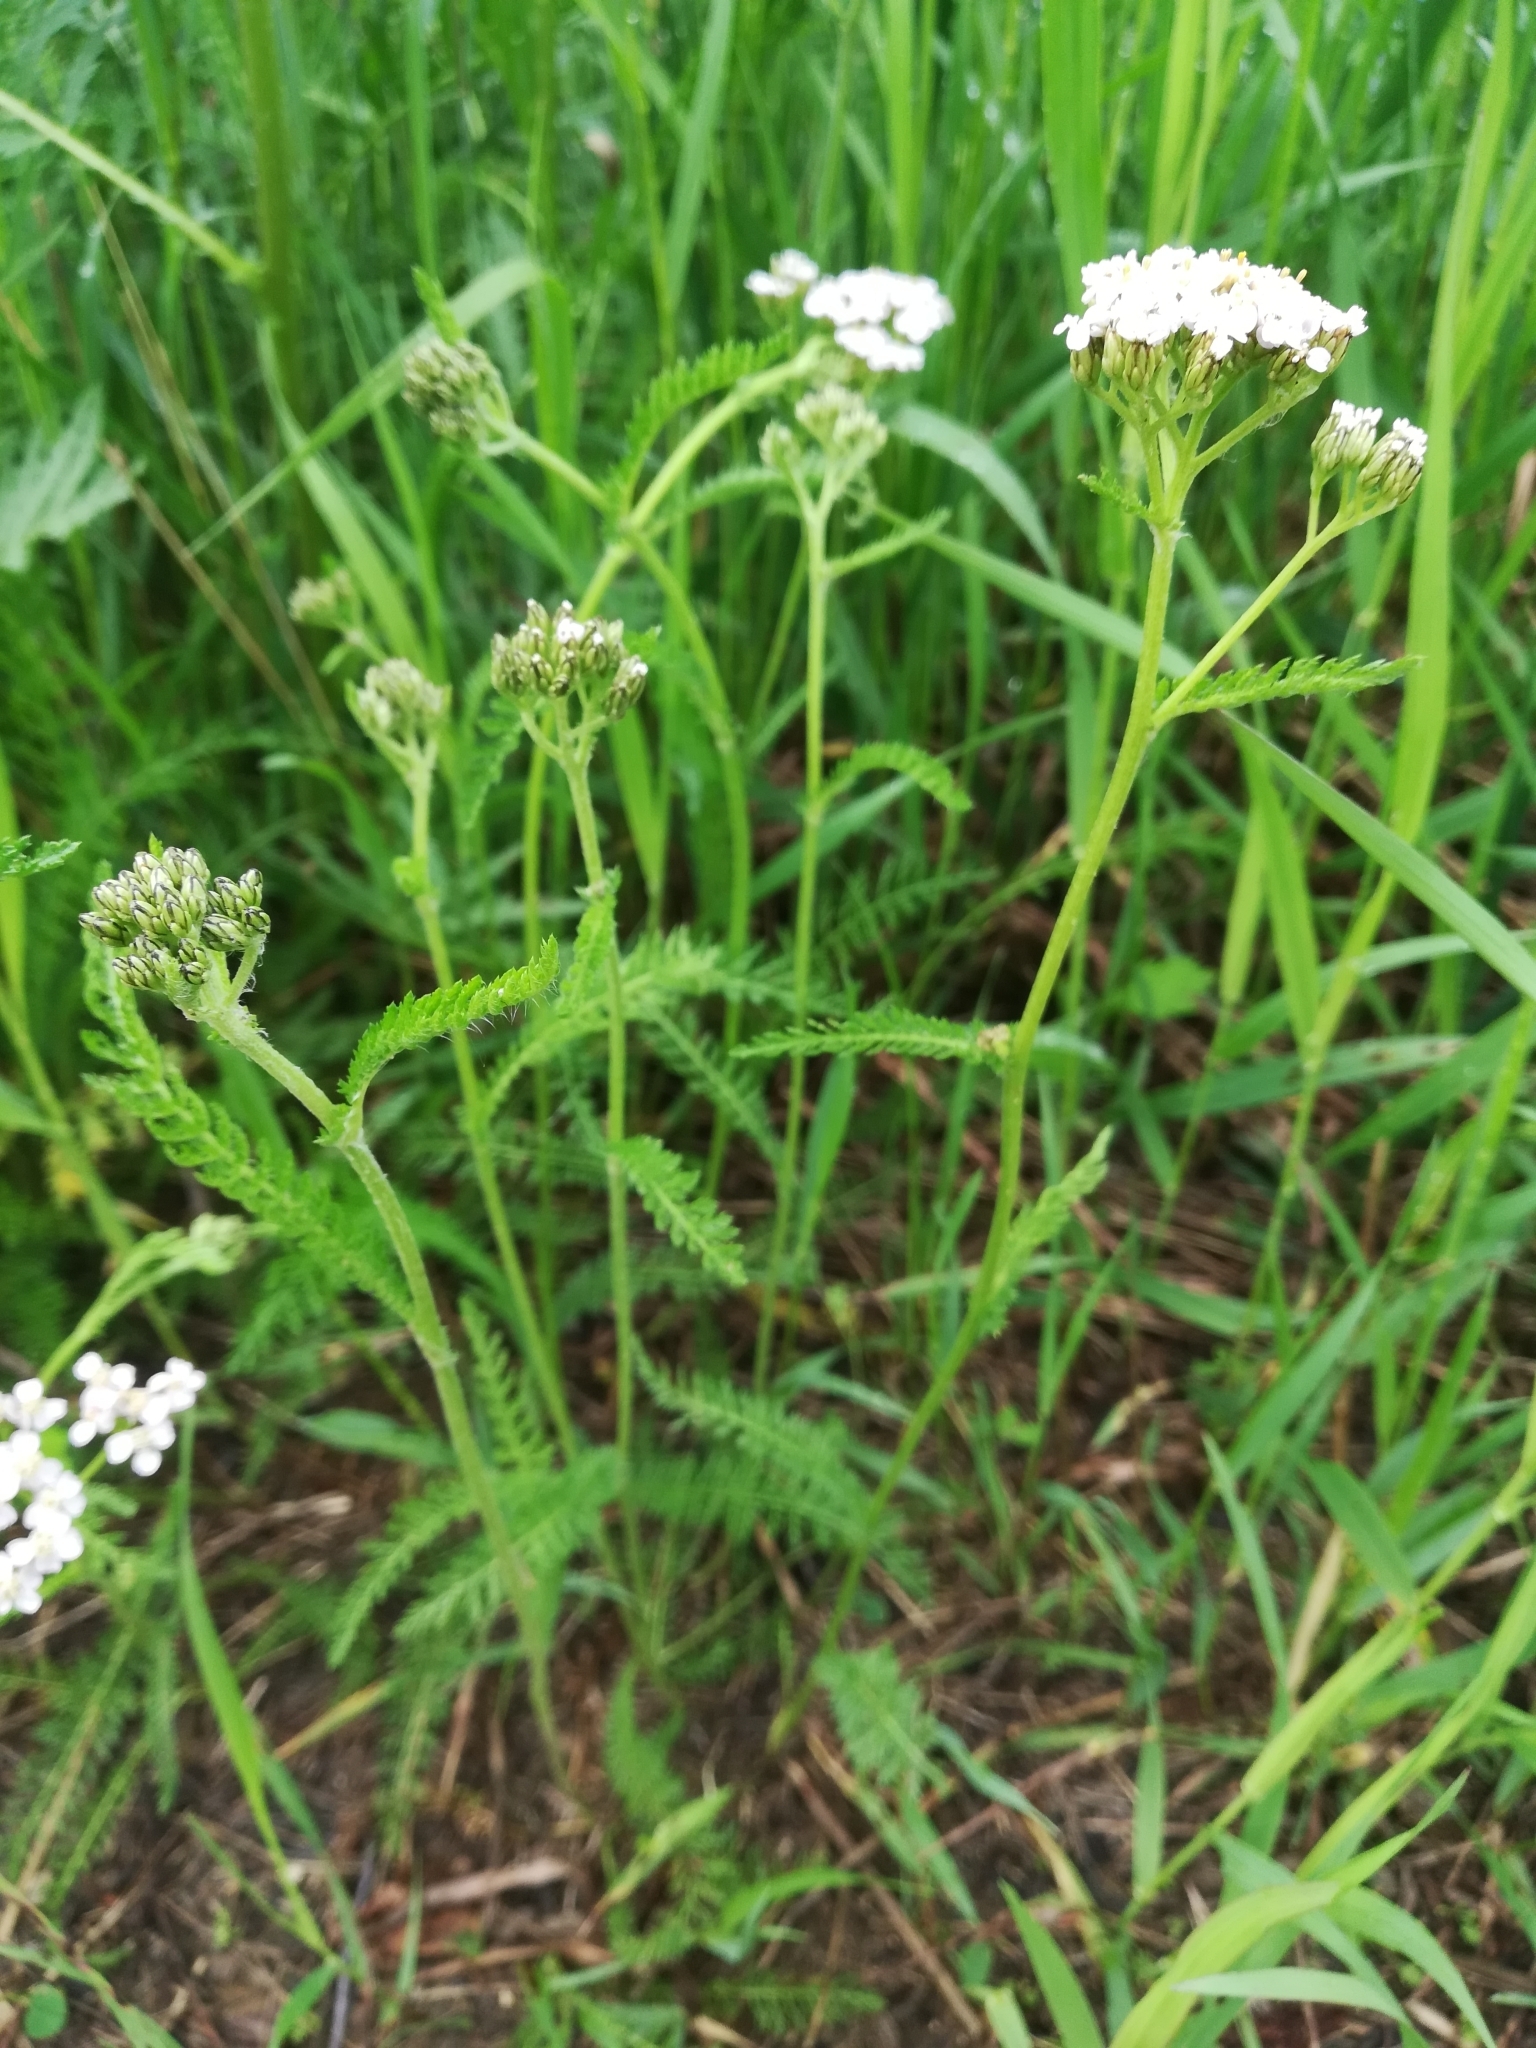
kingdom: Plantae
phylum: Tracheophyta
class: Magnoliopsida
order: Asterales
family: Asteraceae
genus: Achillea
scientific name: Achillea millefolium
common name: Yarrow
